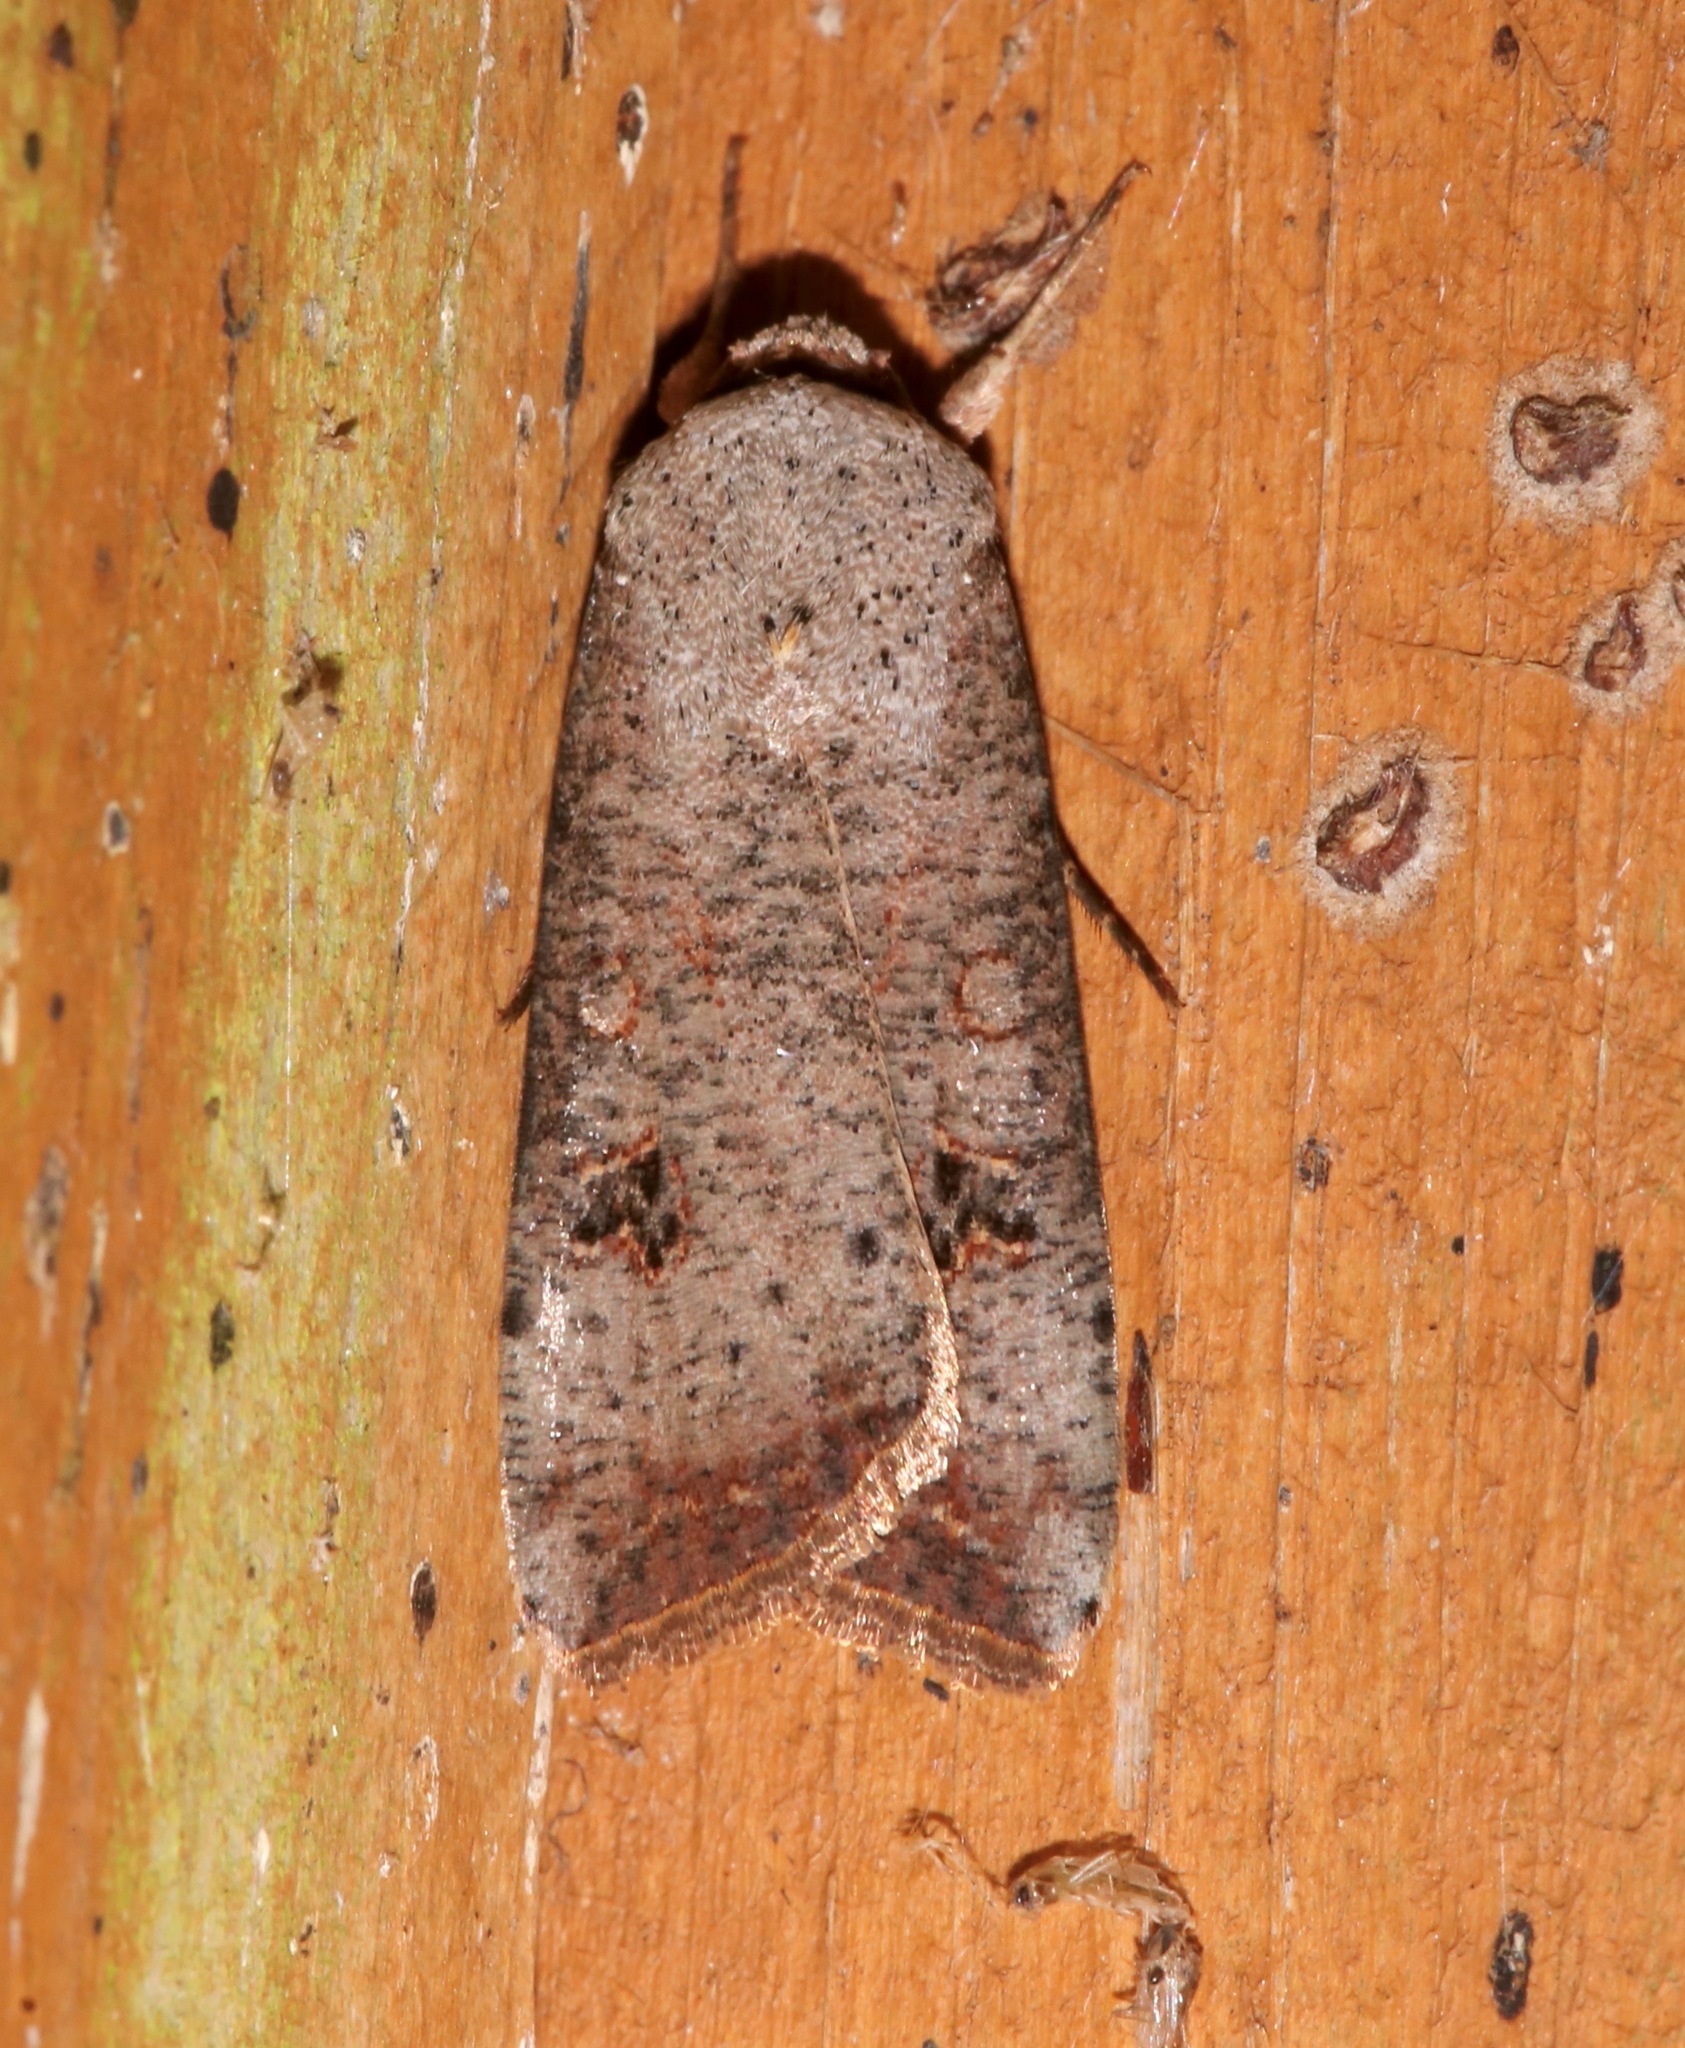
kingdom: Animalia
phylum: Arthropoda
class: Insecta
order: Lepidoptera
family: Noctuidae
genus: Anicla
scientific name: Anicla infecta
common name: Green cutworm
